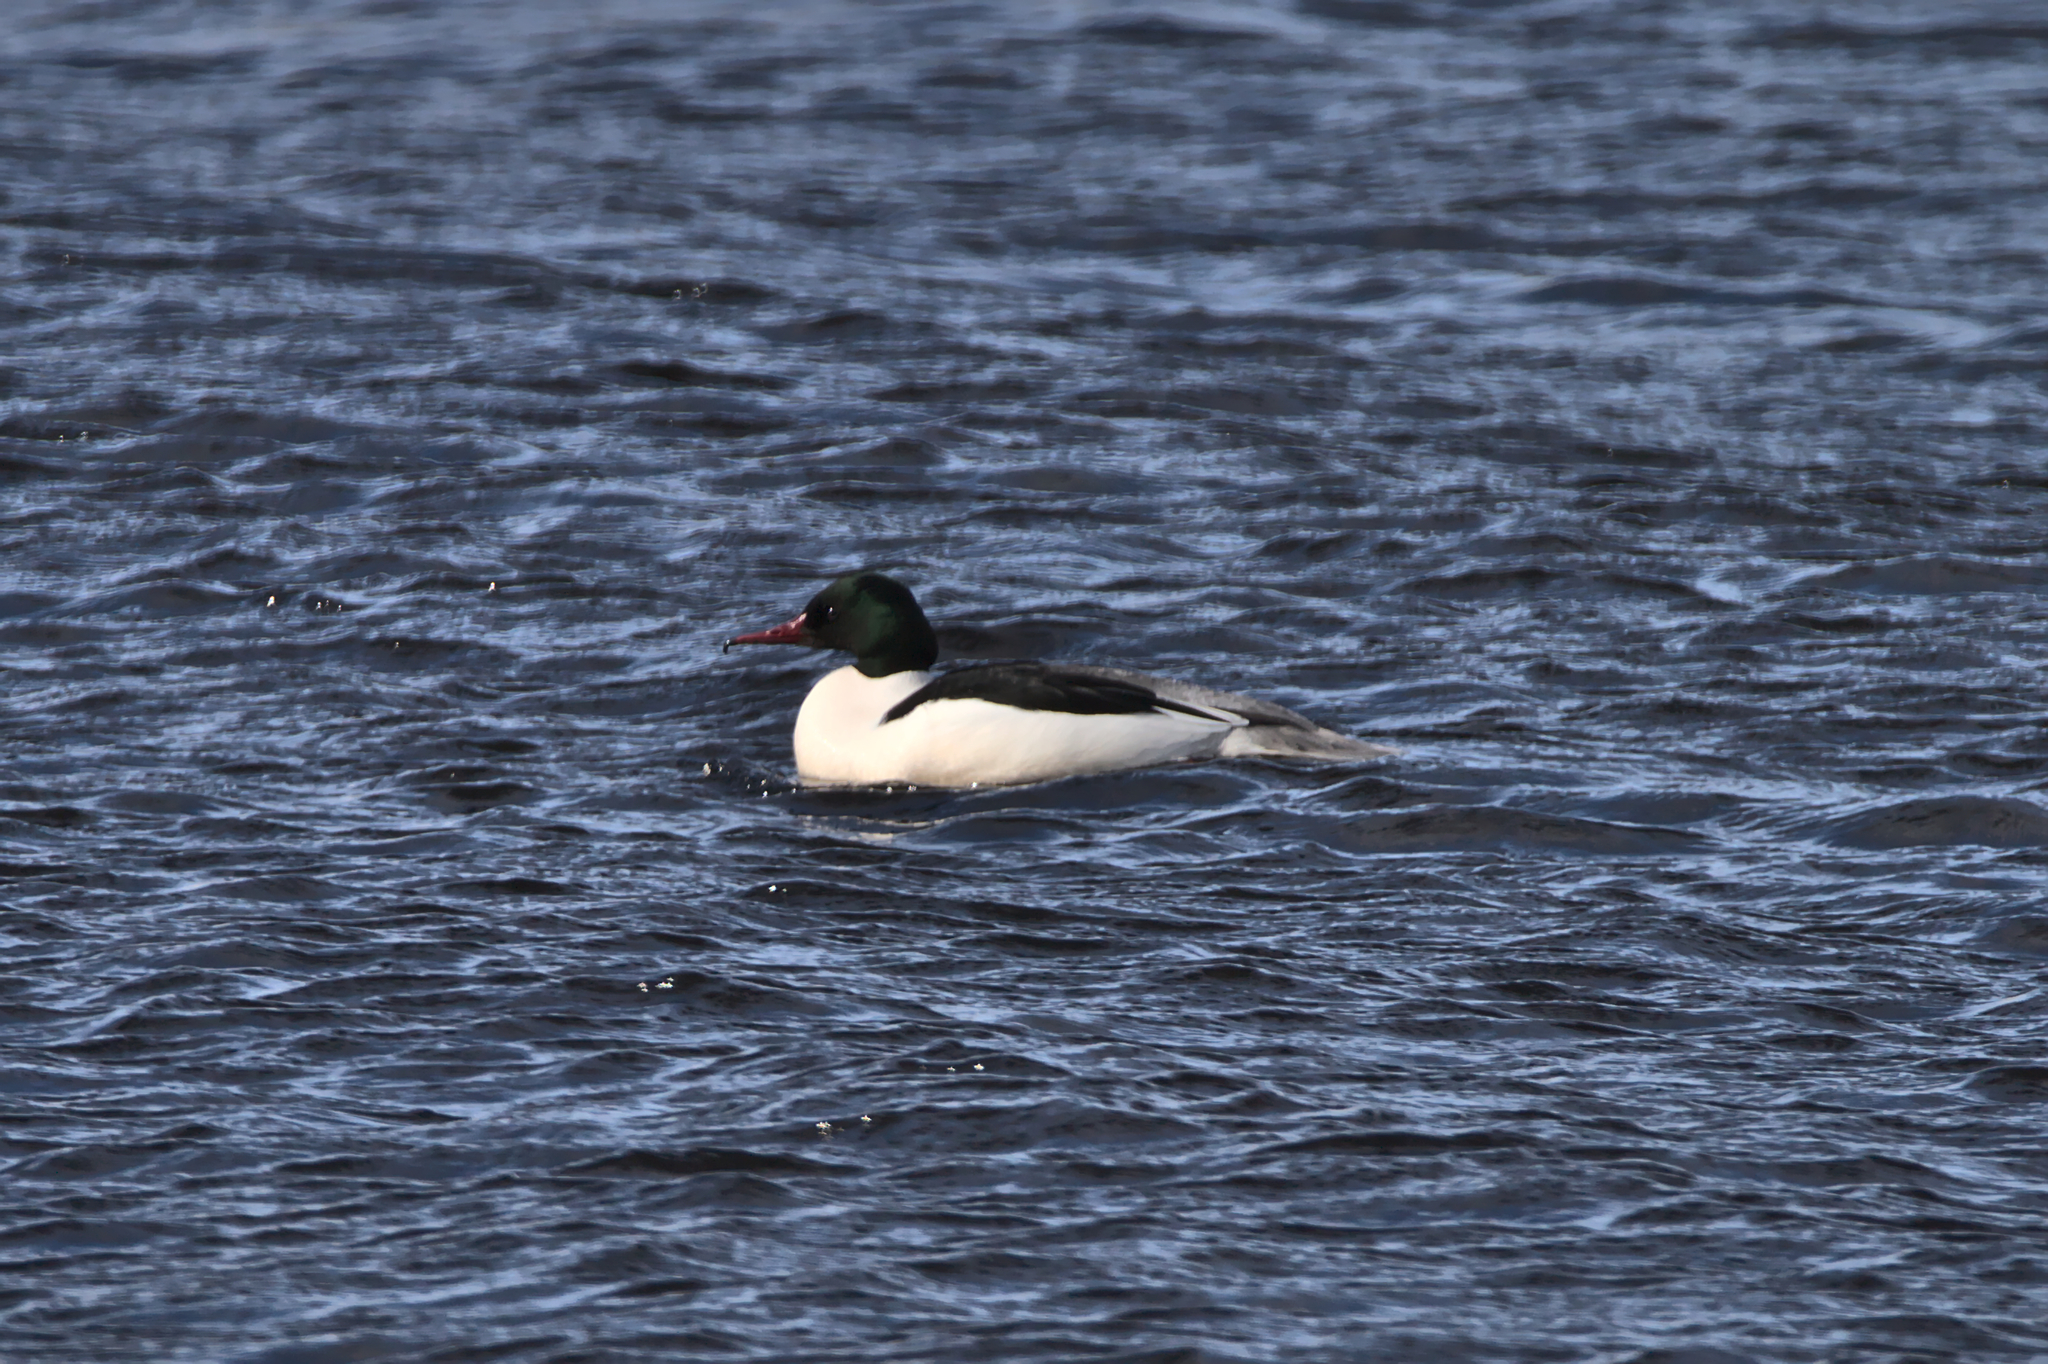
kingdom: Animalia
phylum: Chordata
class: Aves
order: Anseriformes
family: Anatidae
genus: Mergus
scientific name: Mergus merganser
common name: Common merganser
